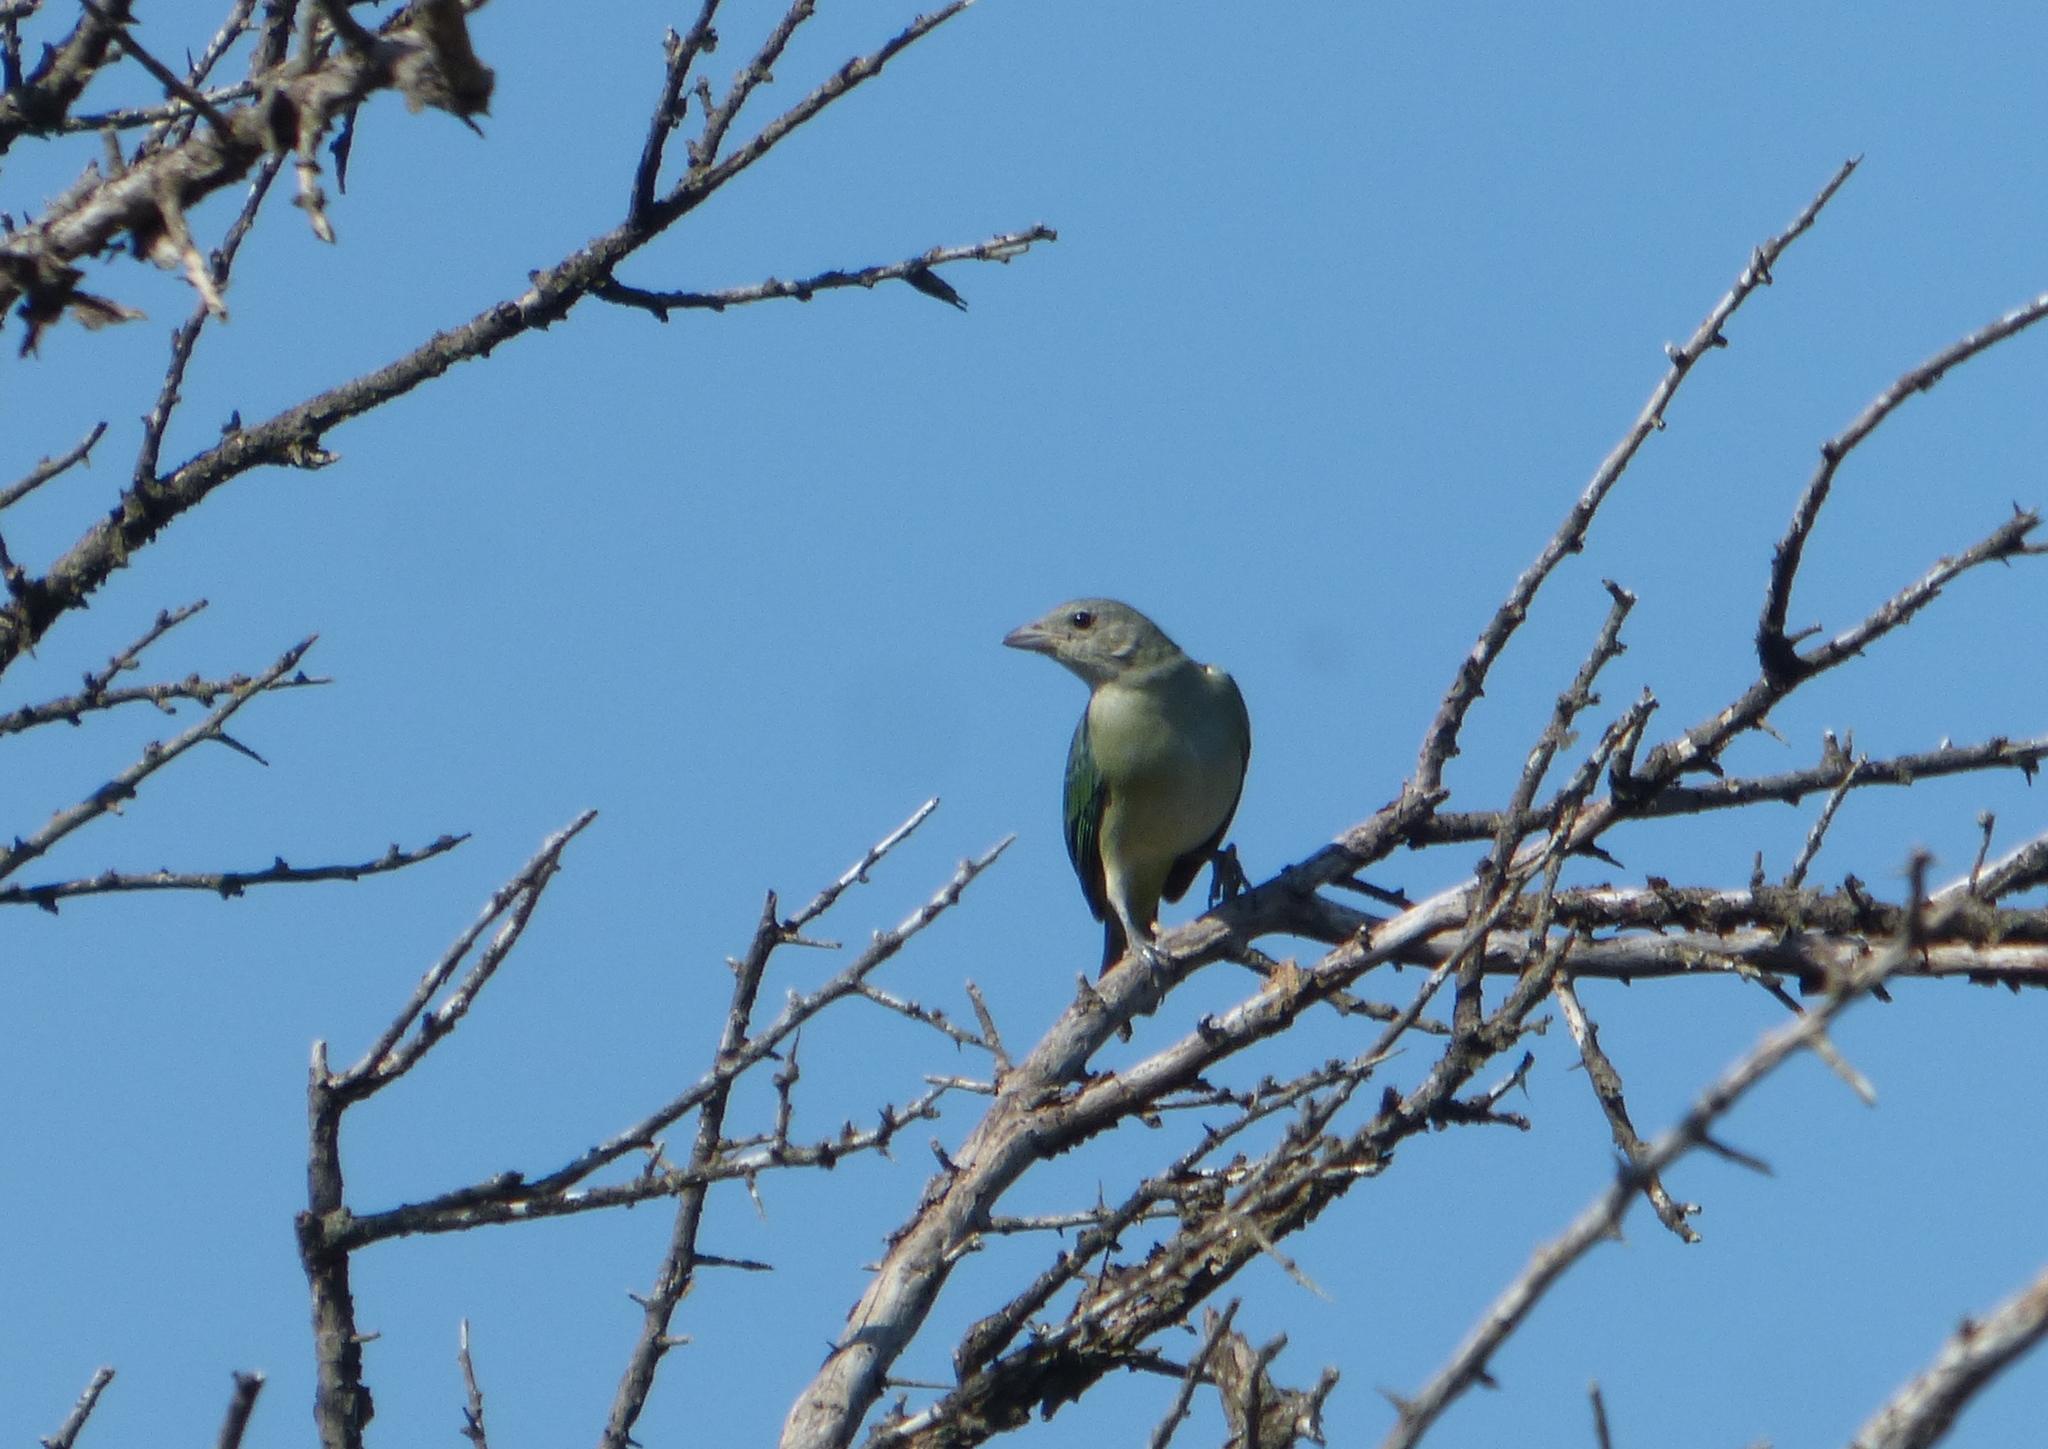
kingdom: Animalia
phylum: Chordata
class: Aves
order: Passeriformes
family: Thraupidae
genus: Thraupis
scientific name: Thraupis sayaca
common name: Sayaca tanager
